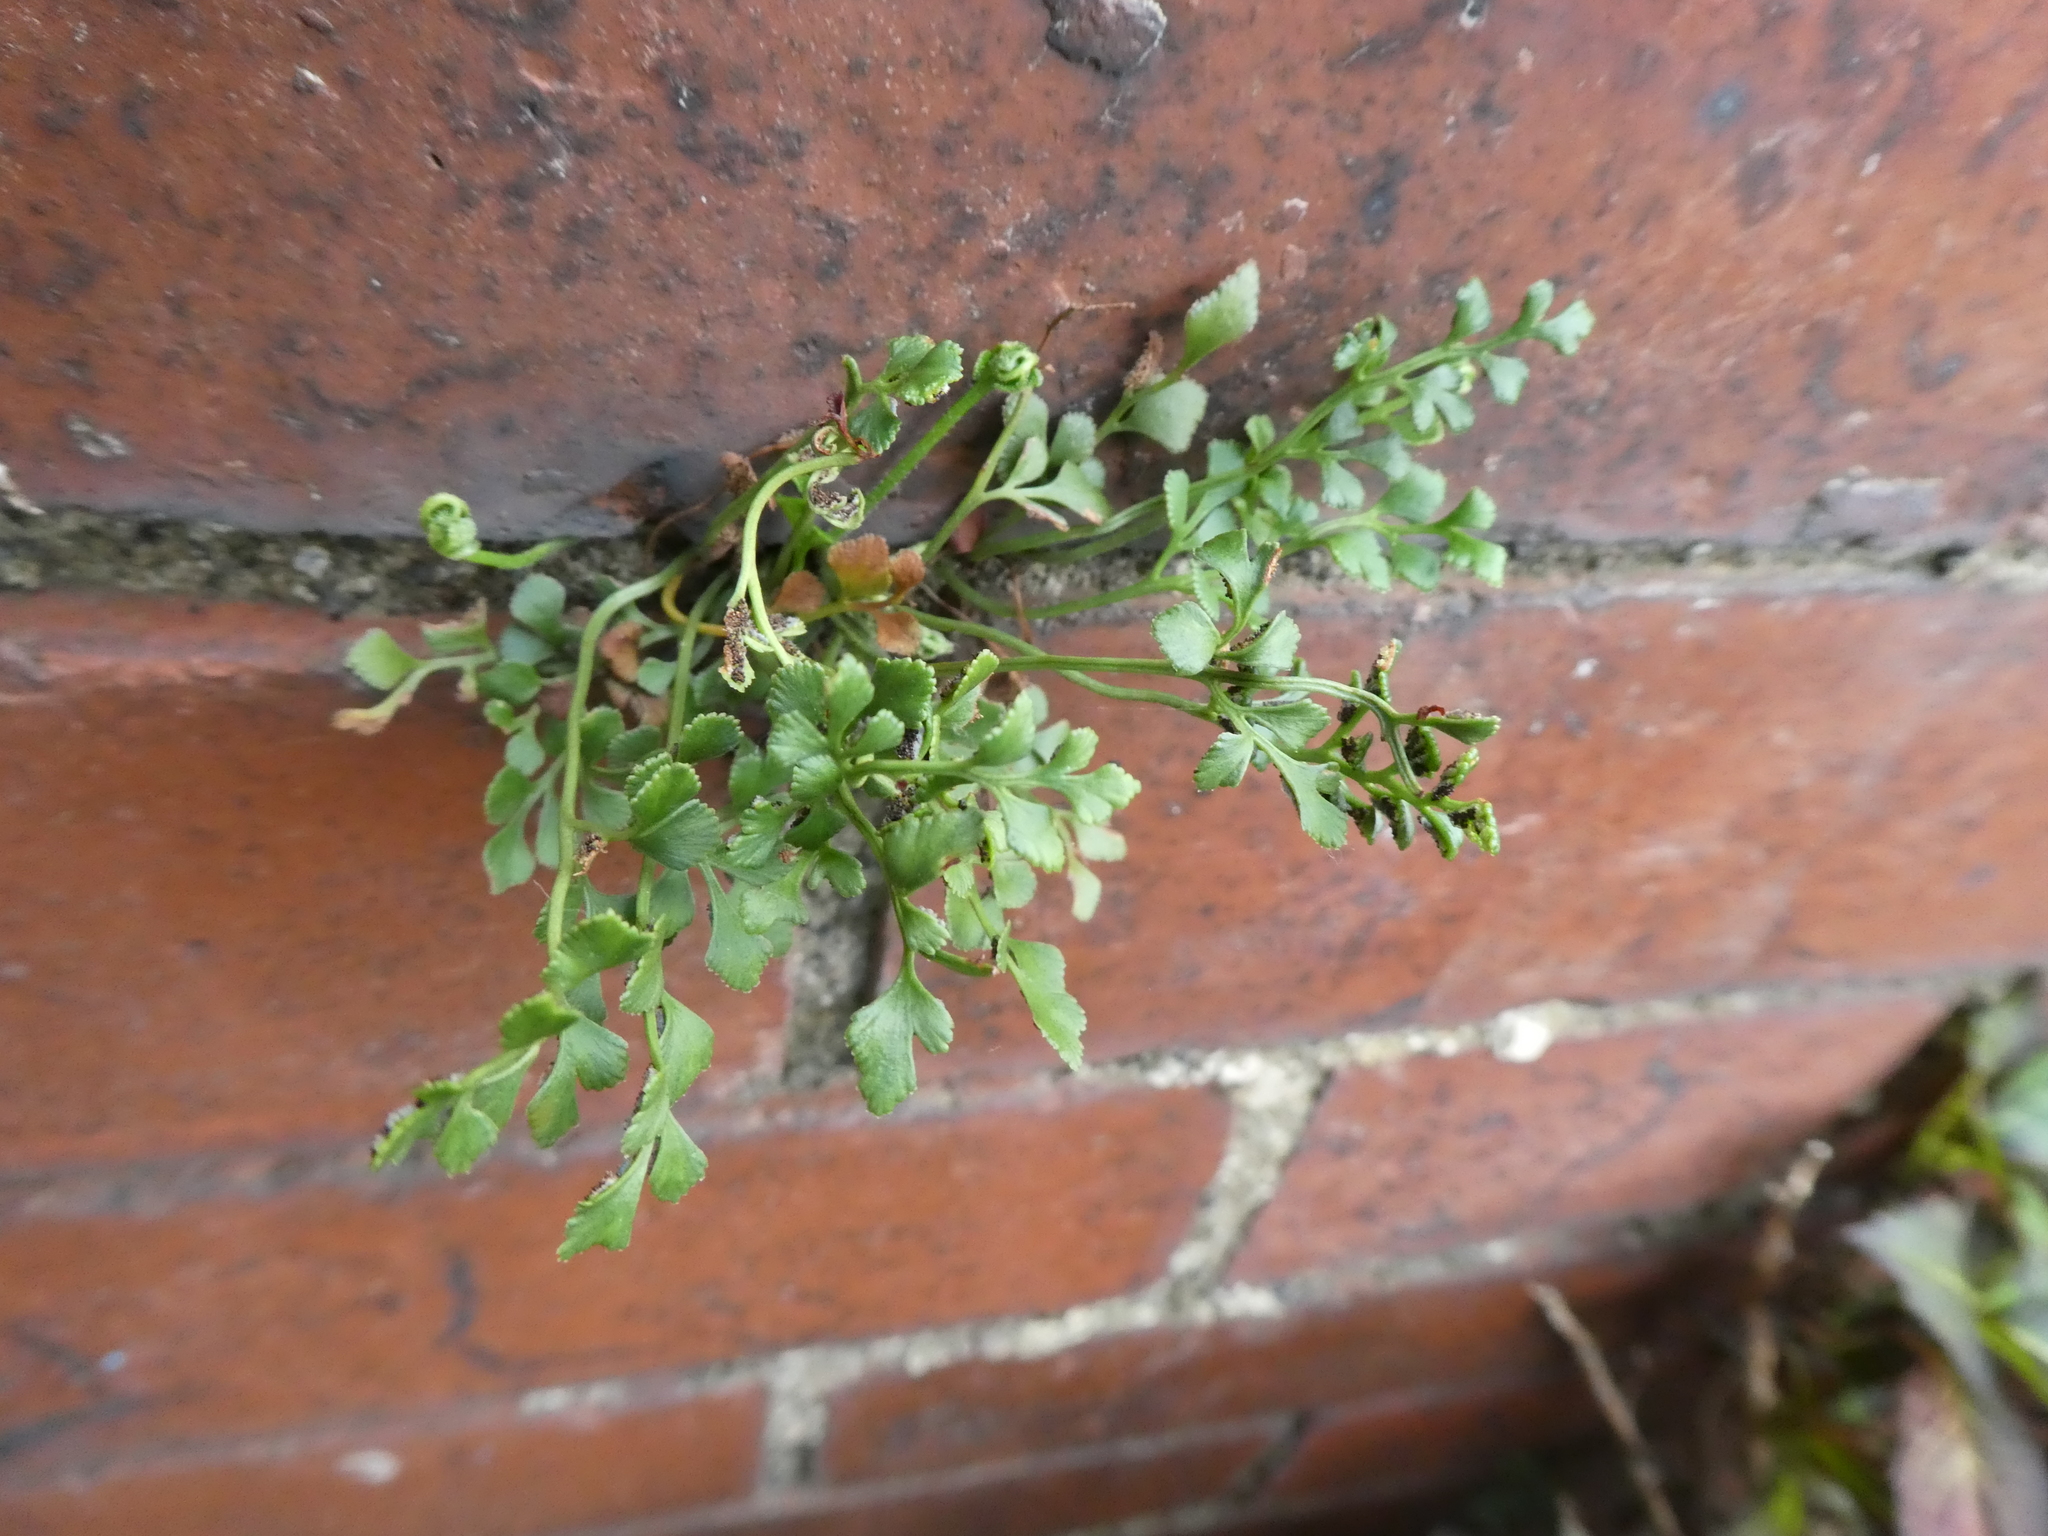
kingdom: Plantae
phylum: Tracheophyta
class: Polypodiopsida
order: Polypodiales
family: Aspleniaceae
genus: Asplenium
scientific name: Asplenium ruta-muraria
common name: Wall-rue
